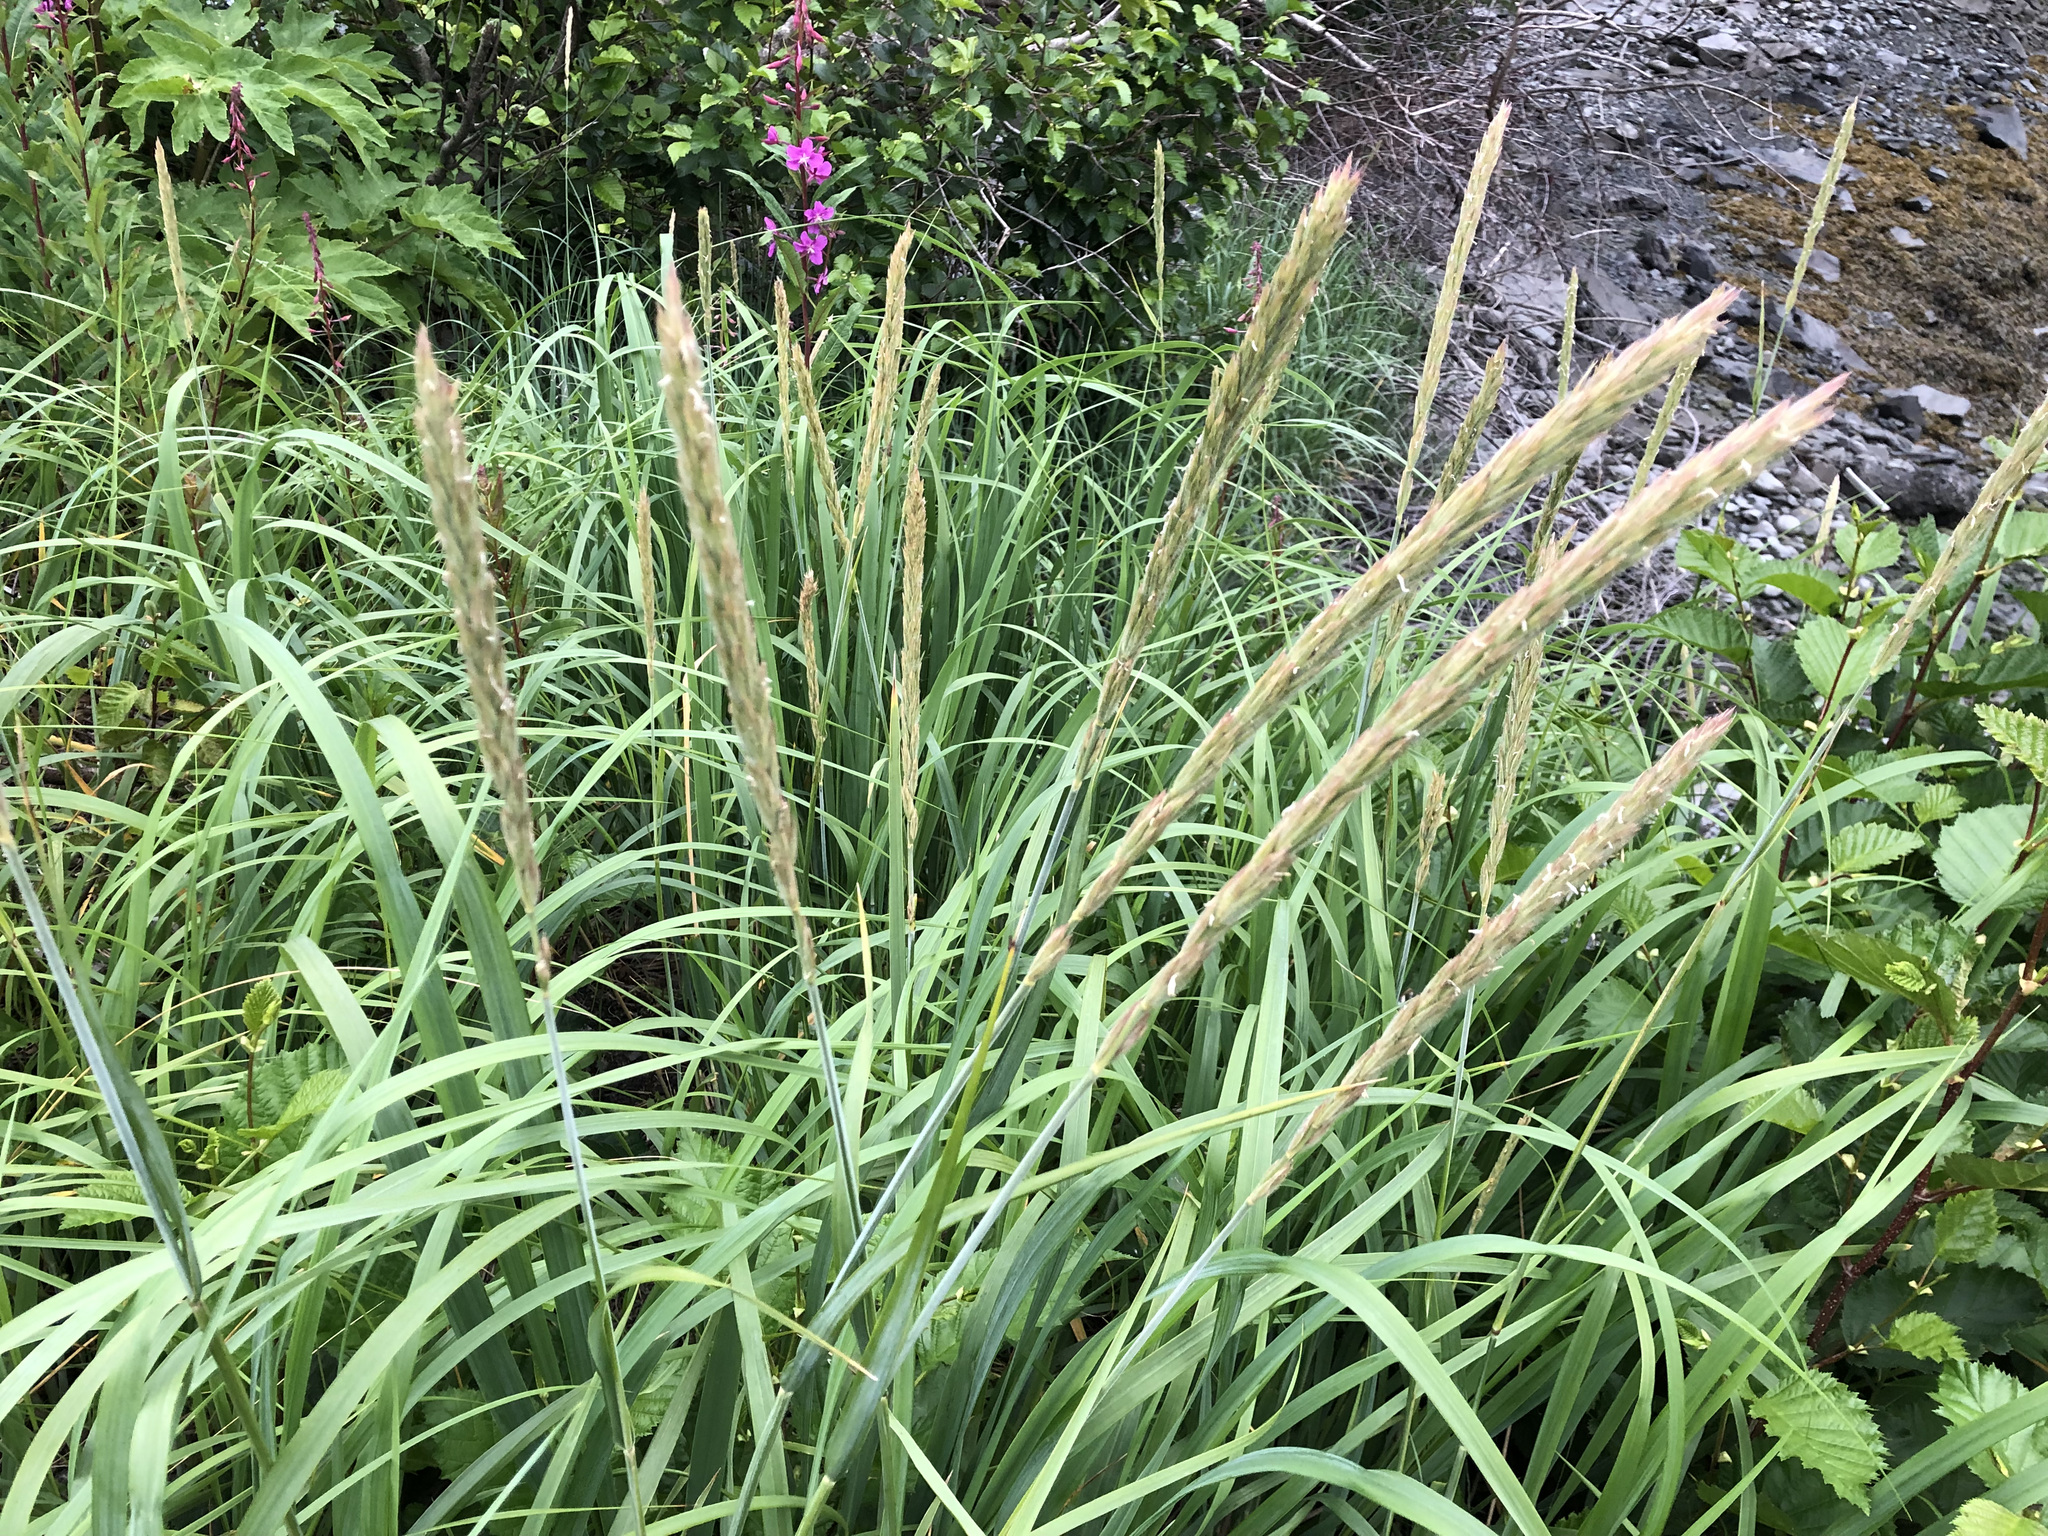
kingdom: Plantae
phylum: Tracheophyta
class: Liliopsida
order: Poales
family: Poaceae
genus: Leymus
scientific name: Leymus mollis
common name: American dune grass
